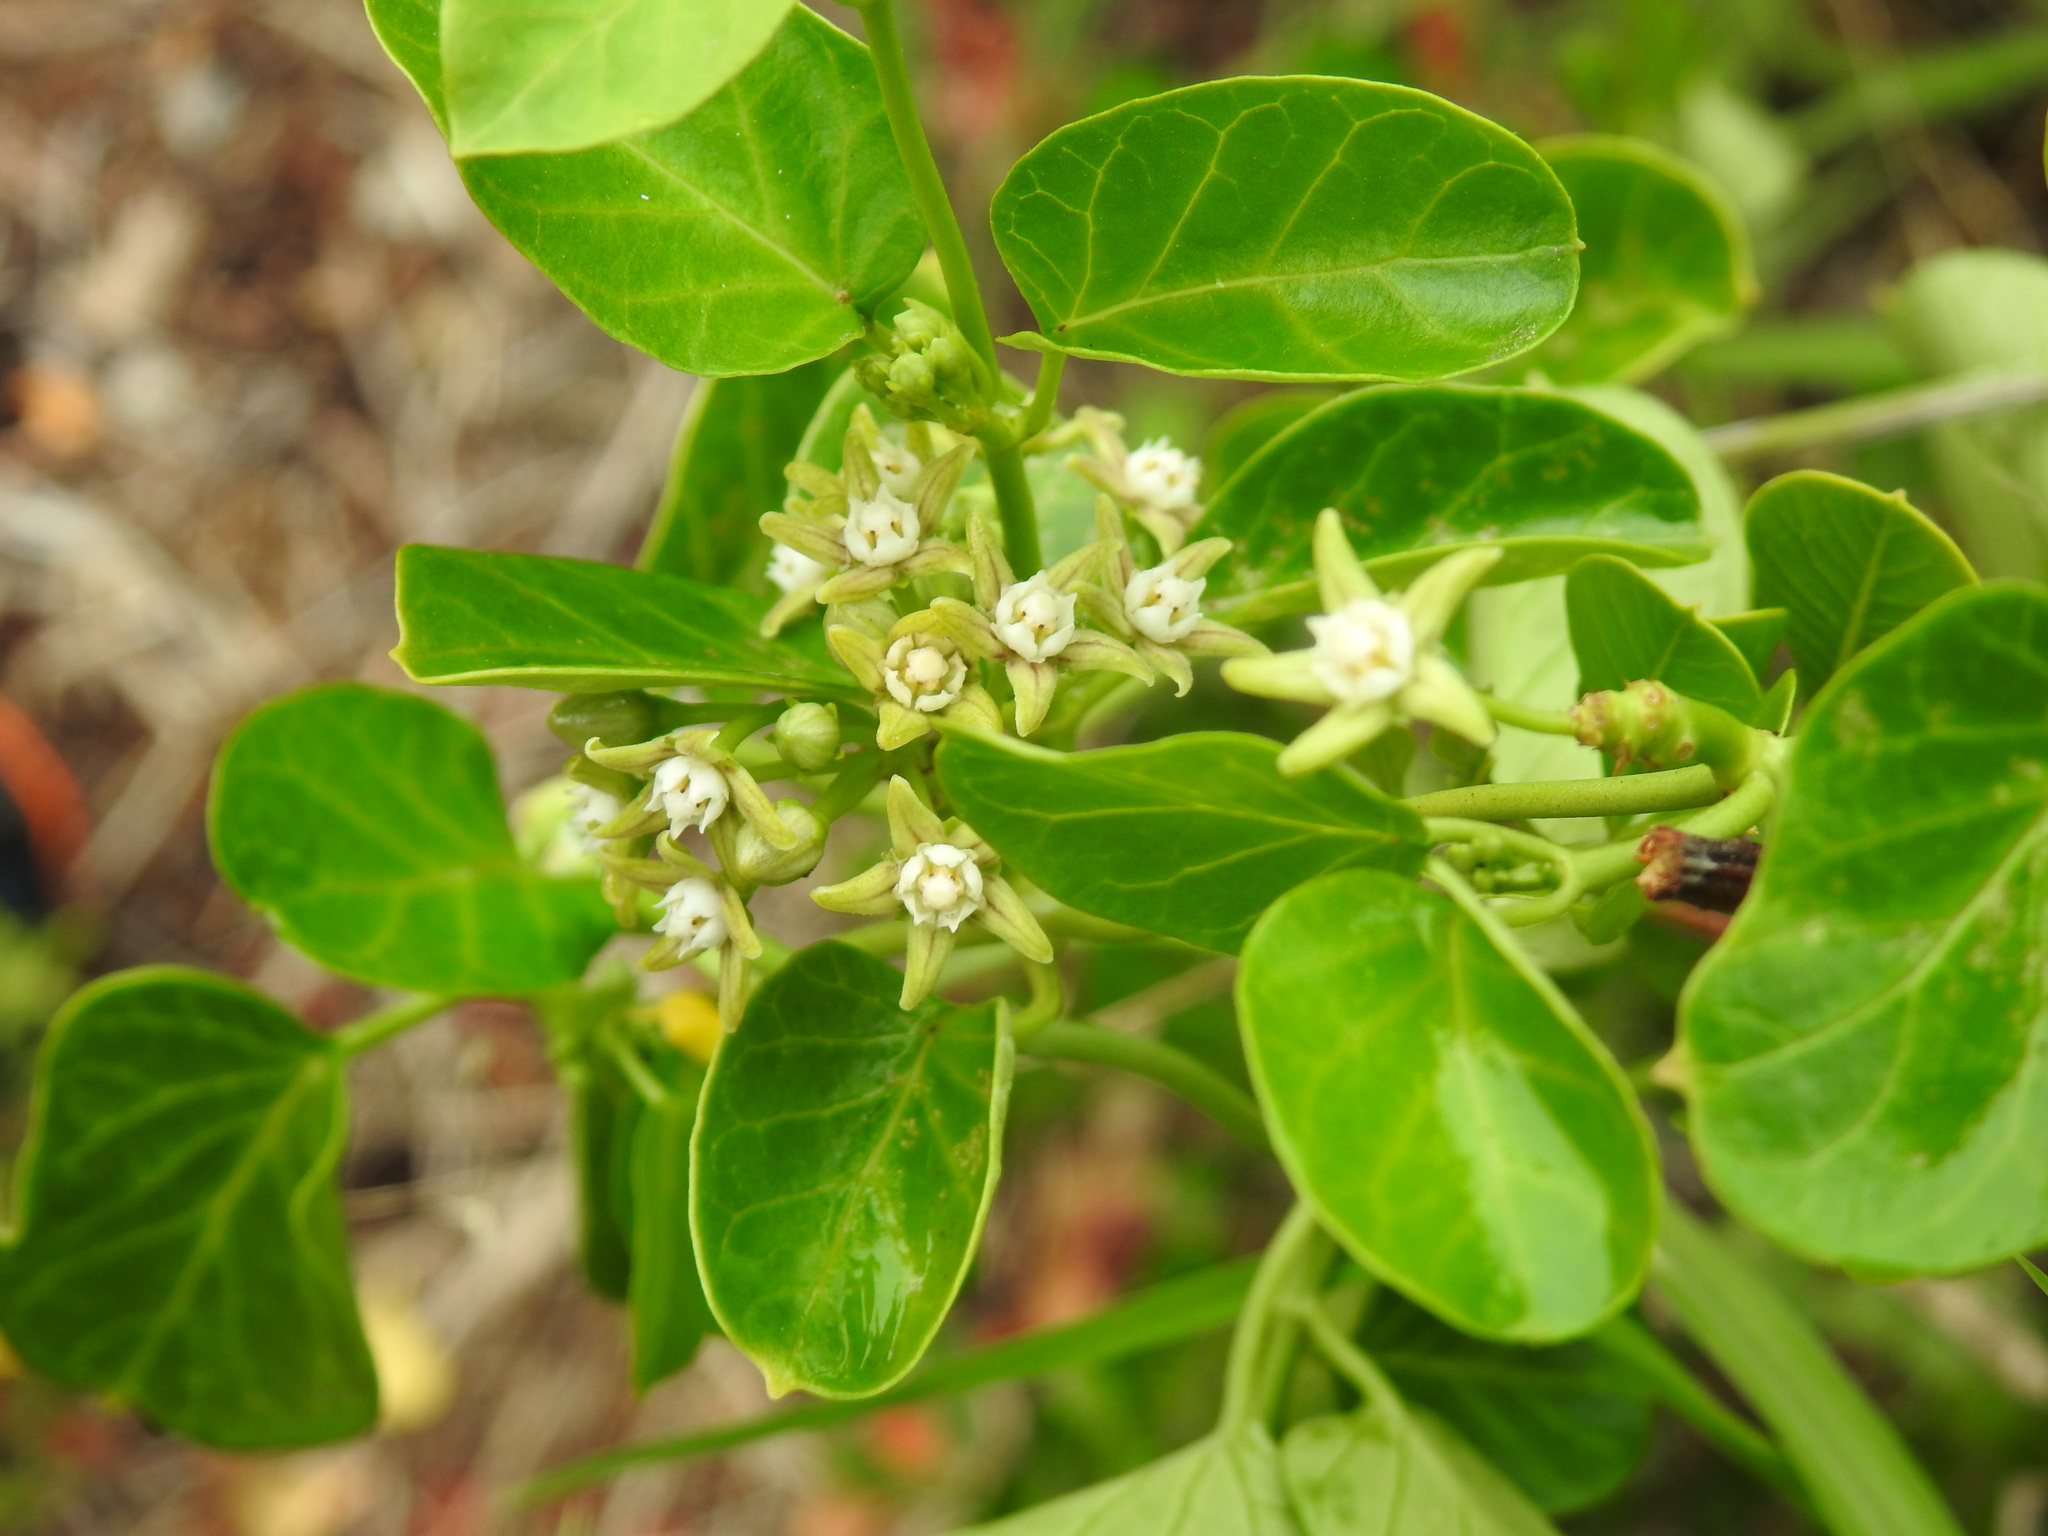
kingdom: Plantae
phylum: Tracheophyta
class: Magnoliopsida
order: Gentianales
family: Apocynaceae
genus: Cynanchum
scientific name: Cynanchum obtusifolium
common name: Monkey-rope
